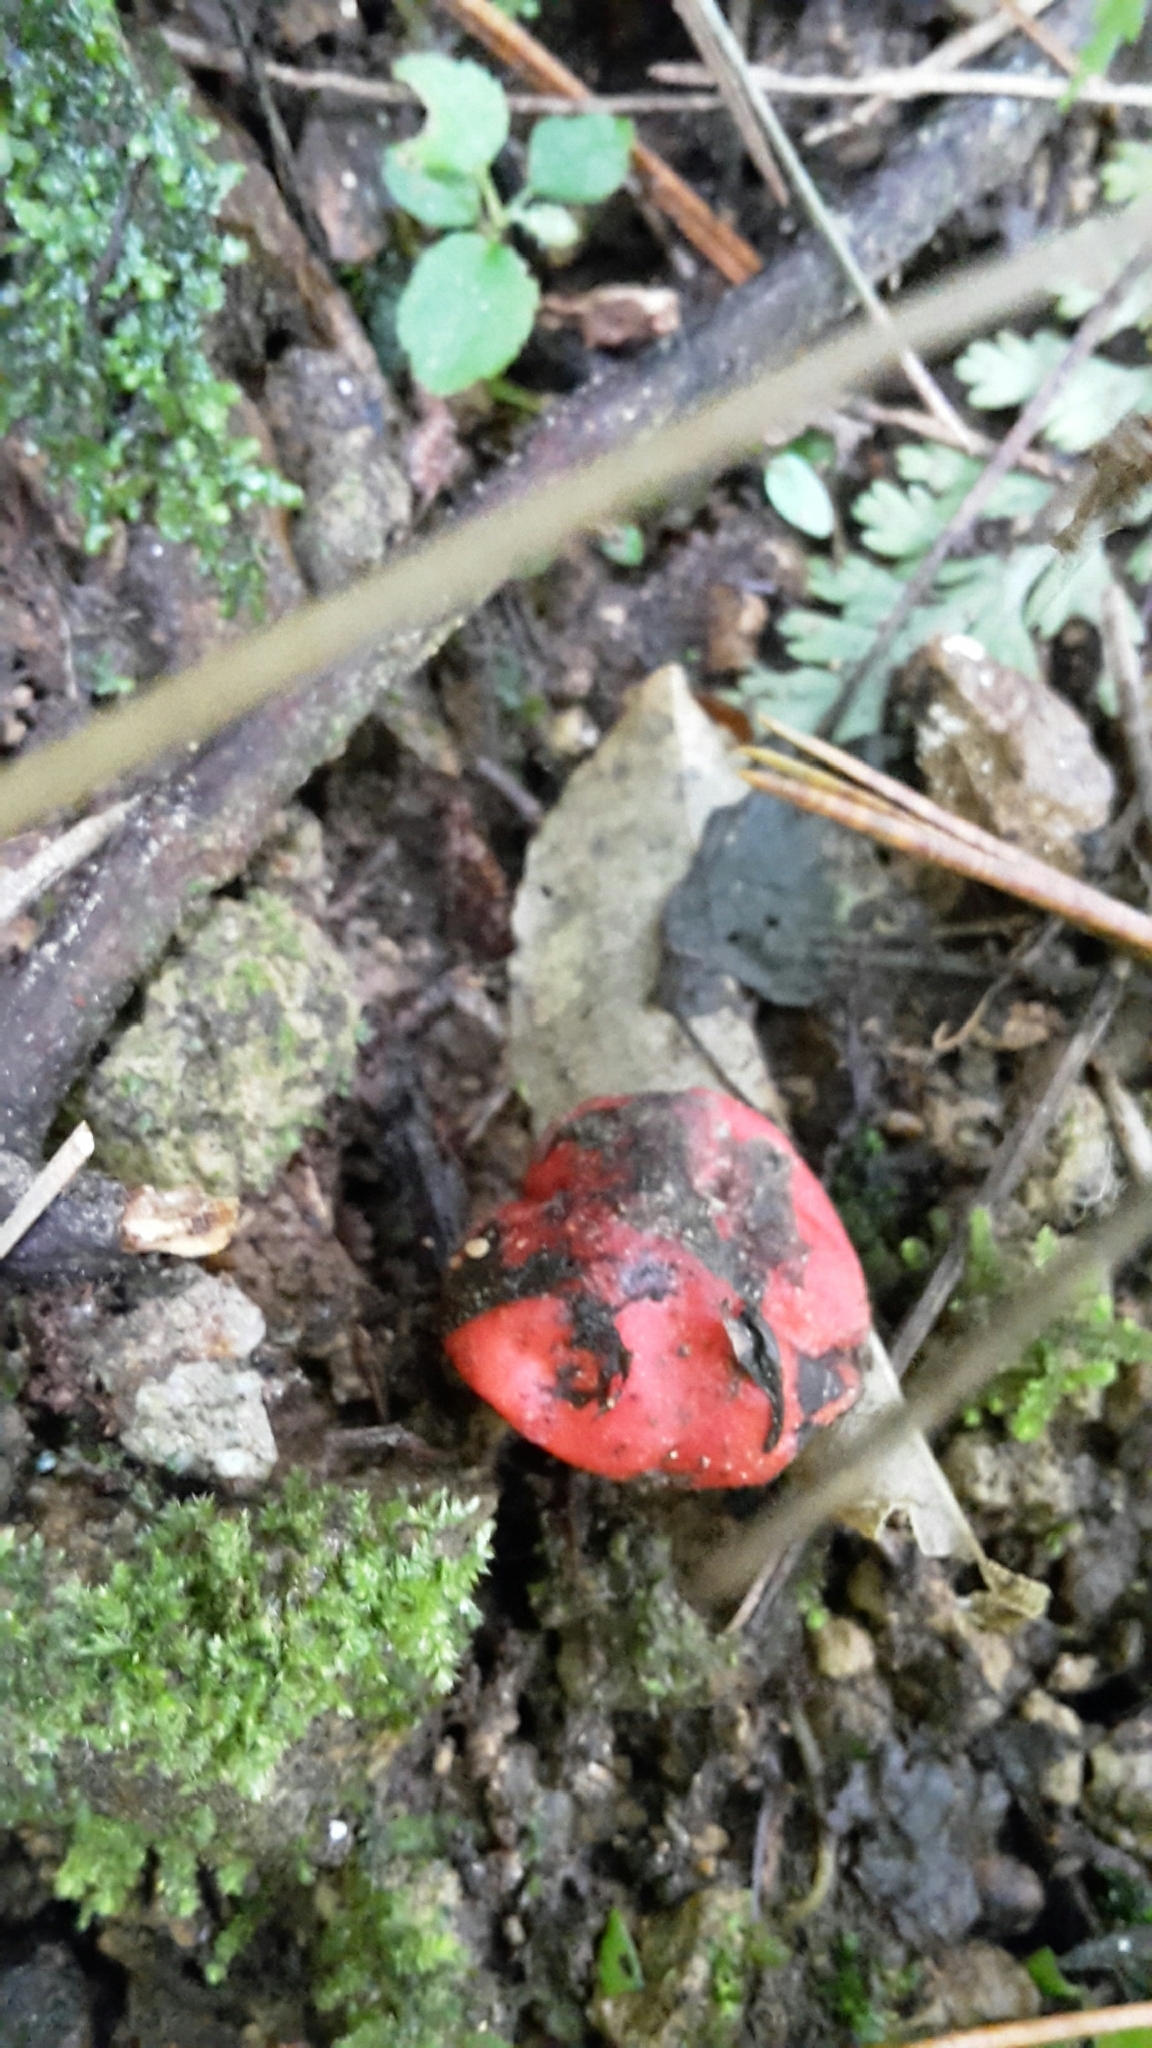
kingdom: Fungi
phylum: Ascomycota
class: Pezizomycetes
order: Pezizales
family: Pyronemataceae
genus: Paurocotylis
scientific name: Paurocotylis pila
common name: Scarlet berry truffle
